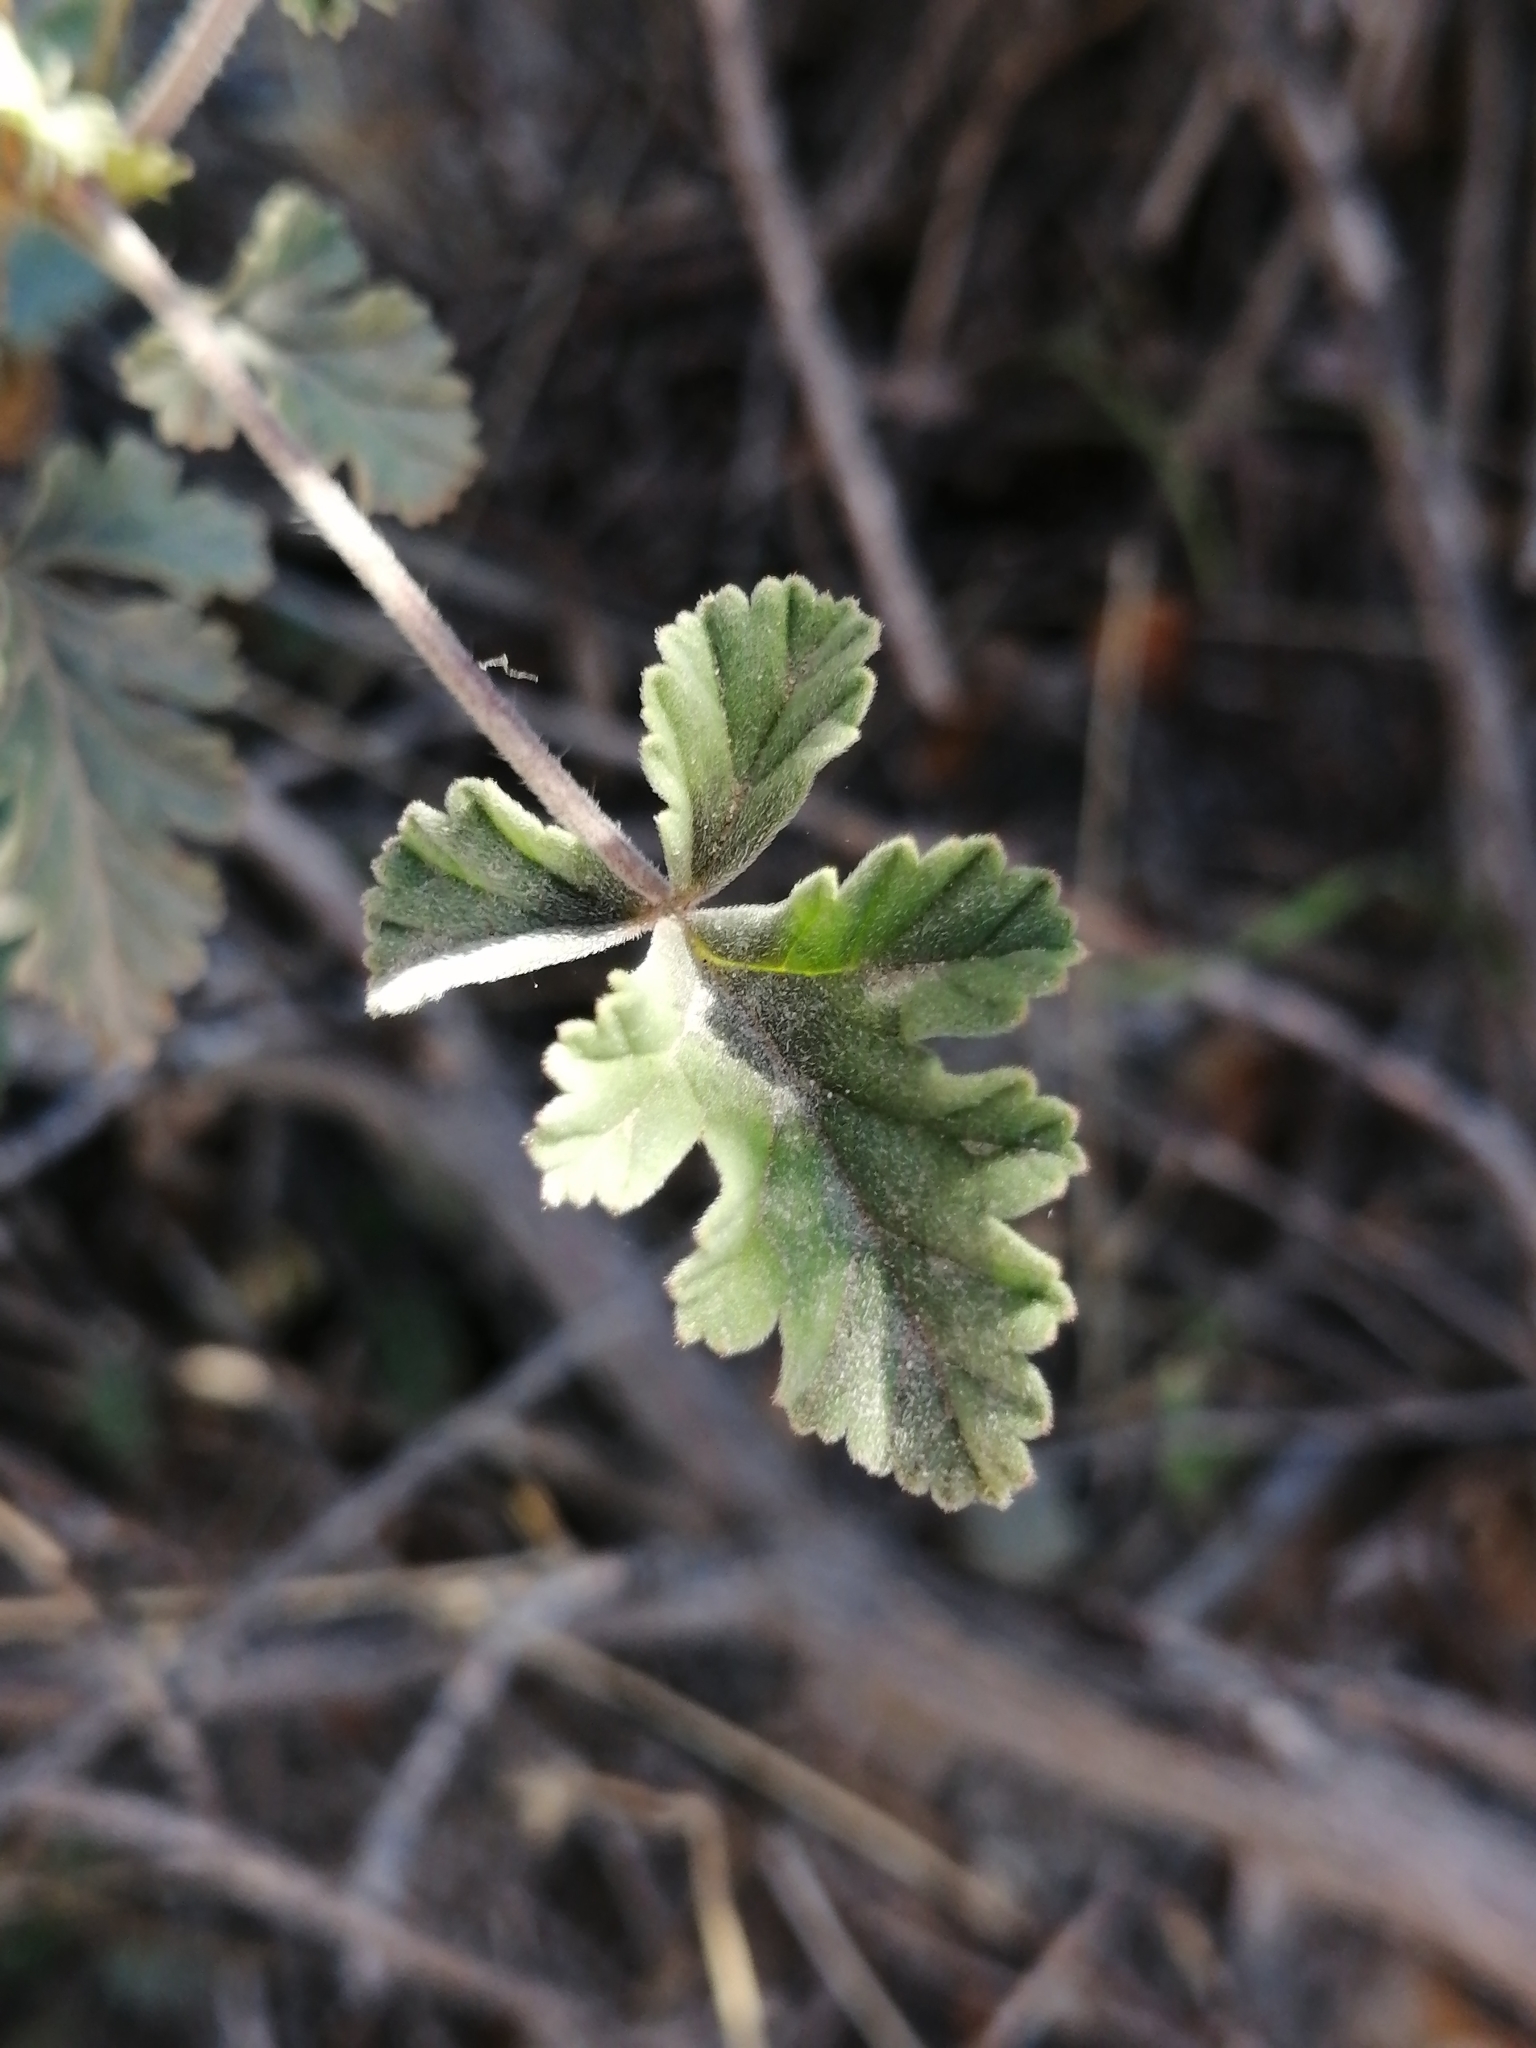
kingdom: Plantae
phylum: Tracheophyta
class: Magnoliopsida
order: Geraniales
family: Geraniaceae
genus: Pelargonium
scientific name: Pelargonium candicans
